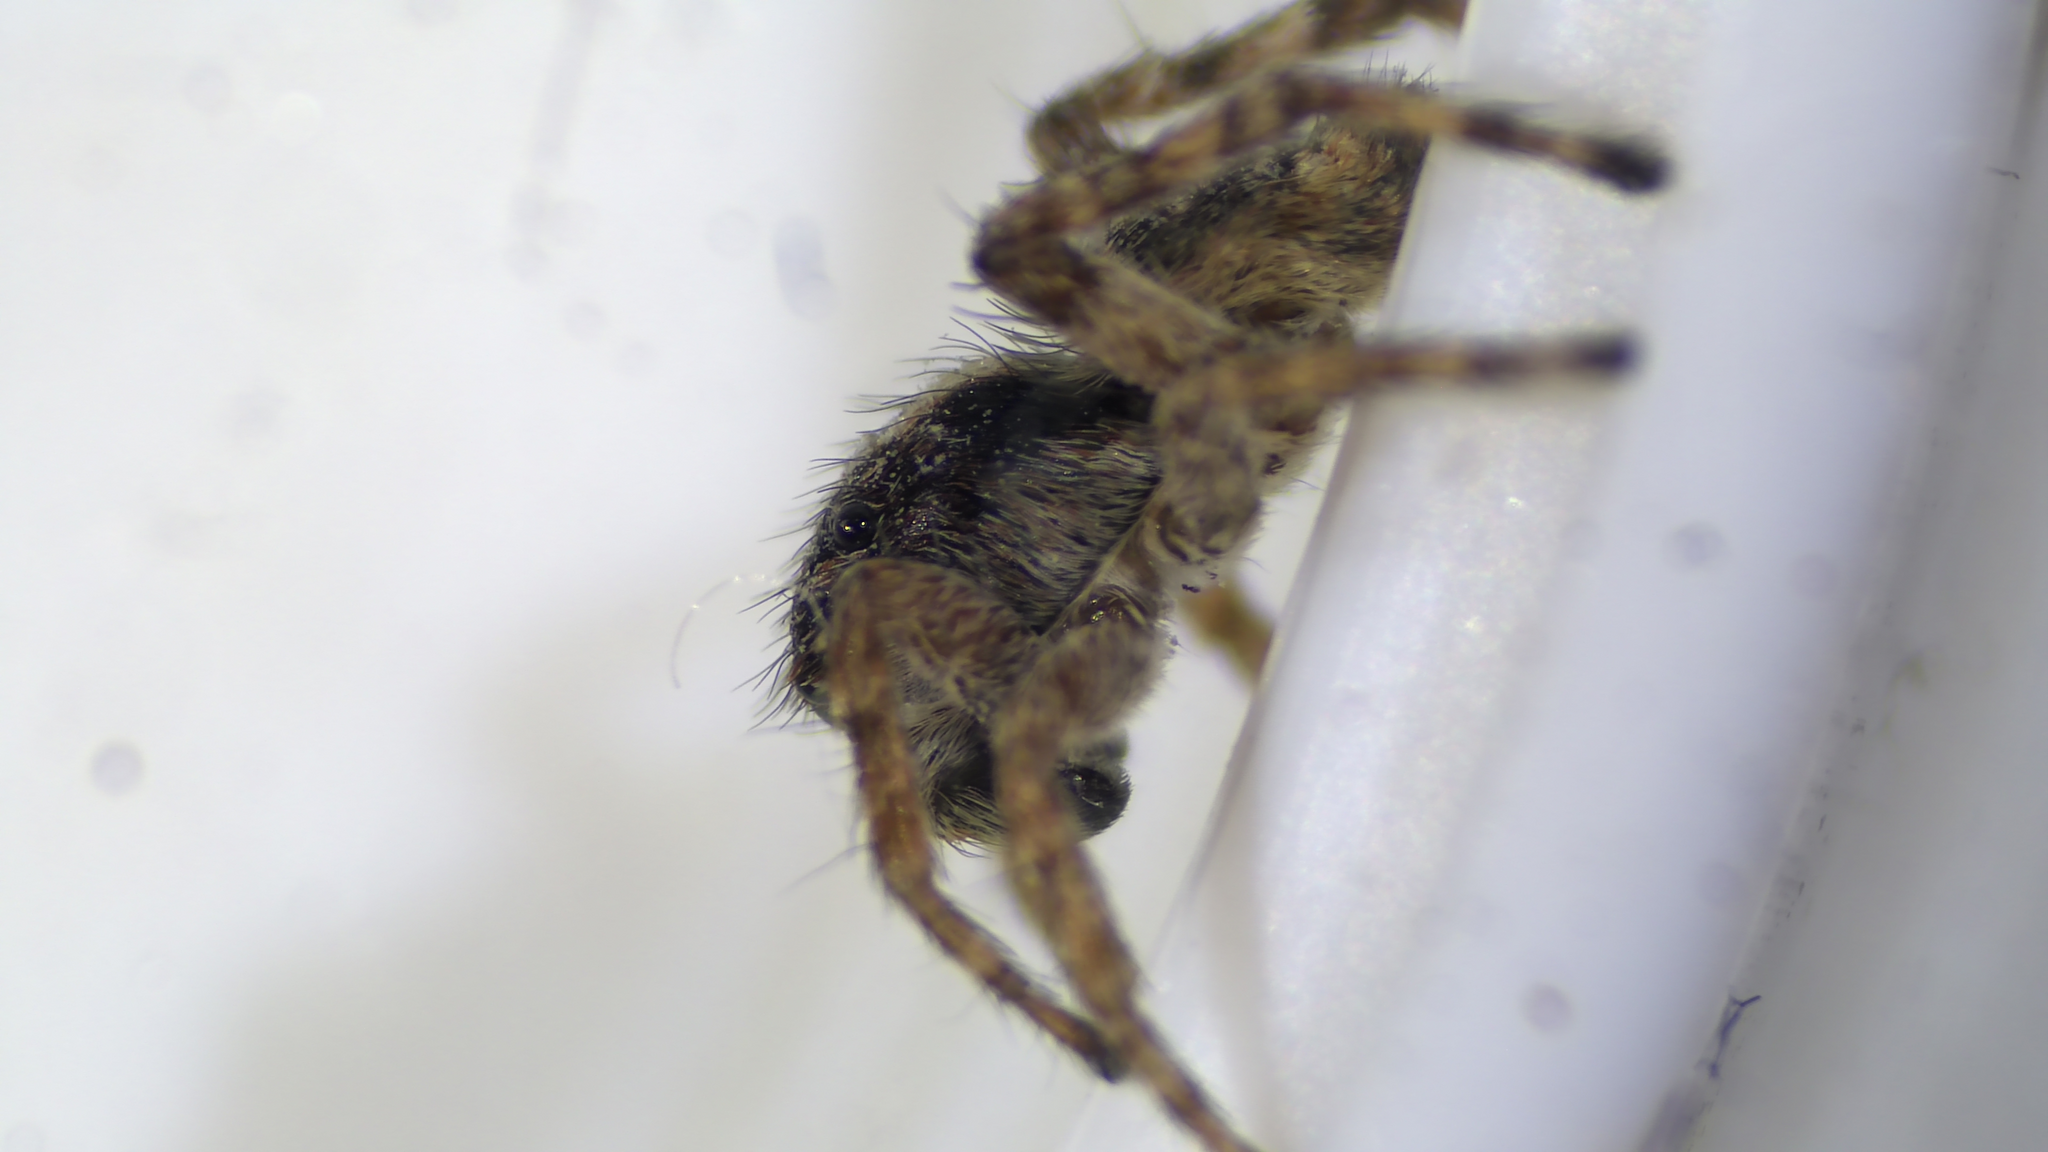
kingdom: Animalia
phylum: Arthropoda
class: Arachnida
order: Araneae
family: Salticidae
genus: Attulus
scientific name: Attulus fasciger
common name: Asiatic wall jumping spider
